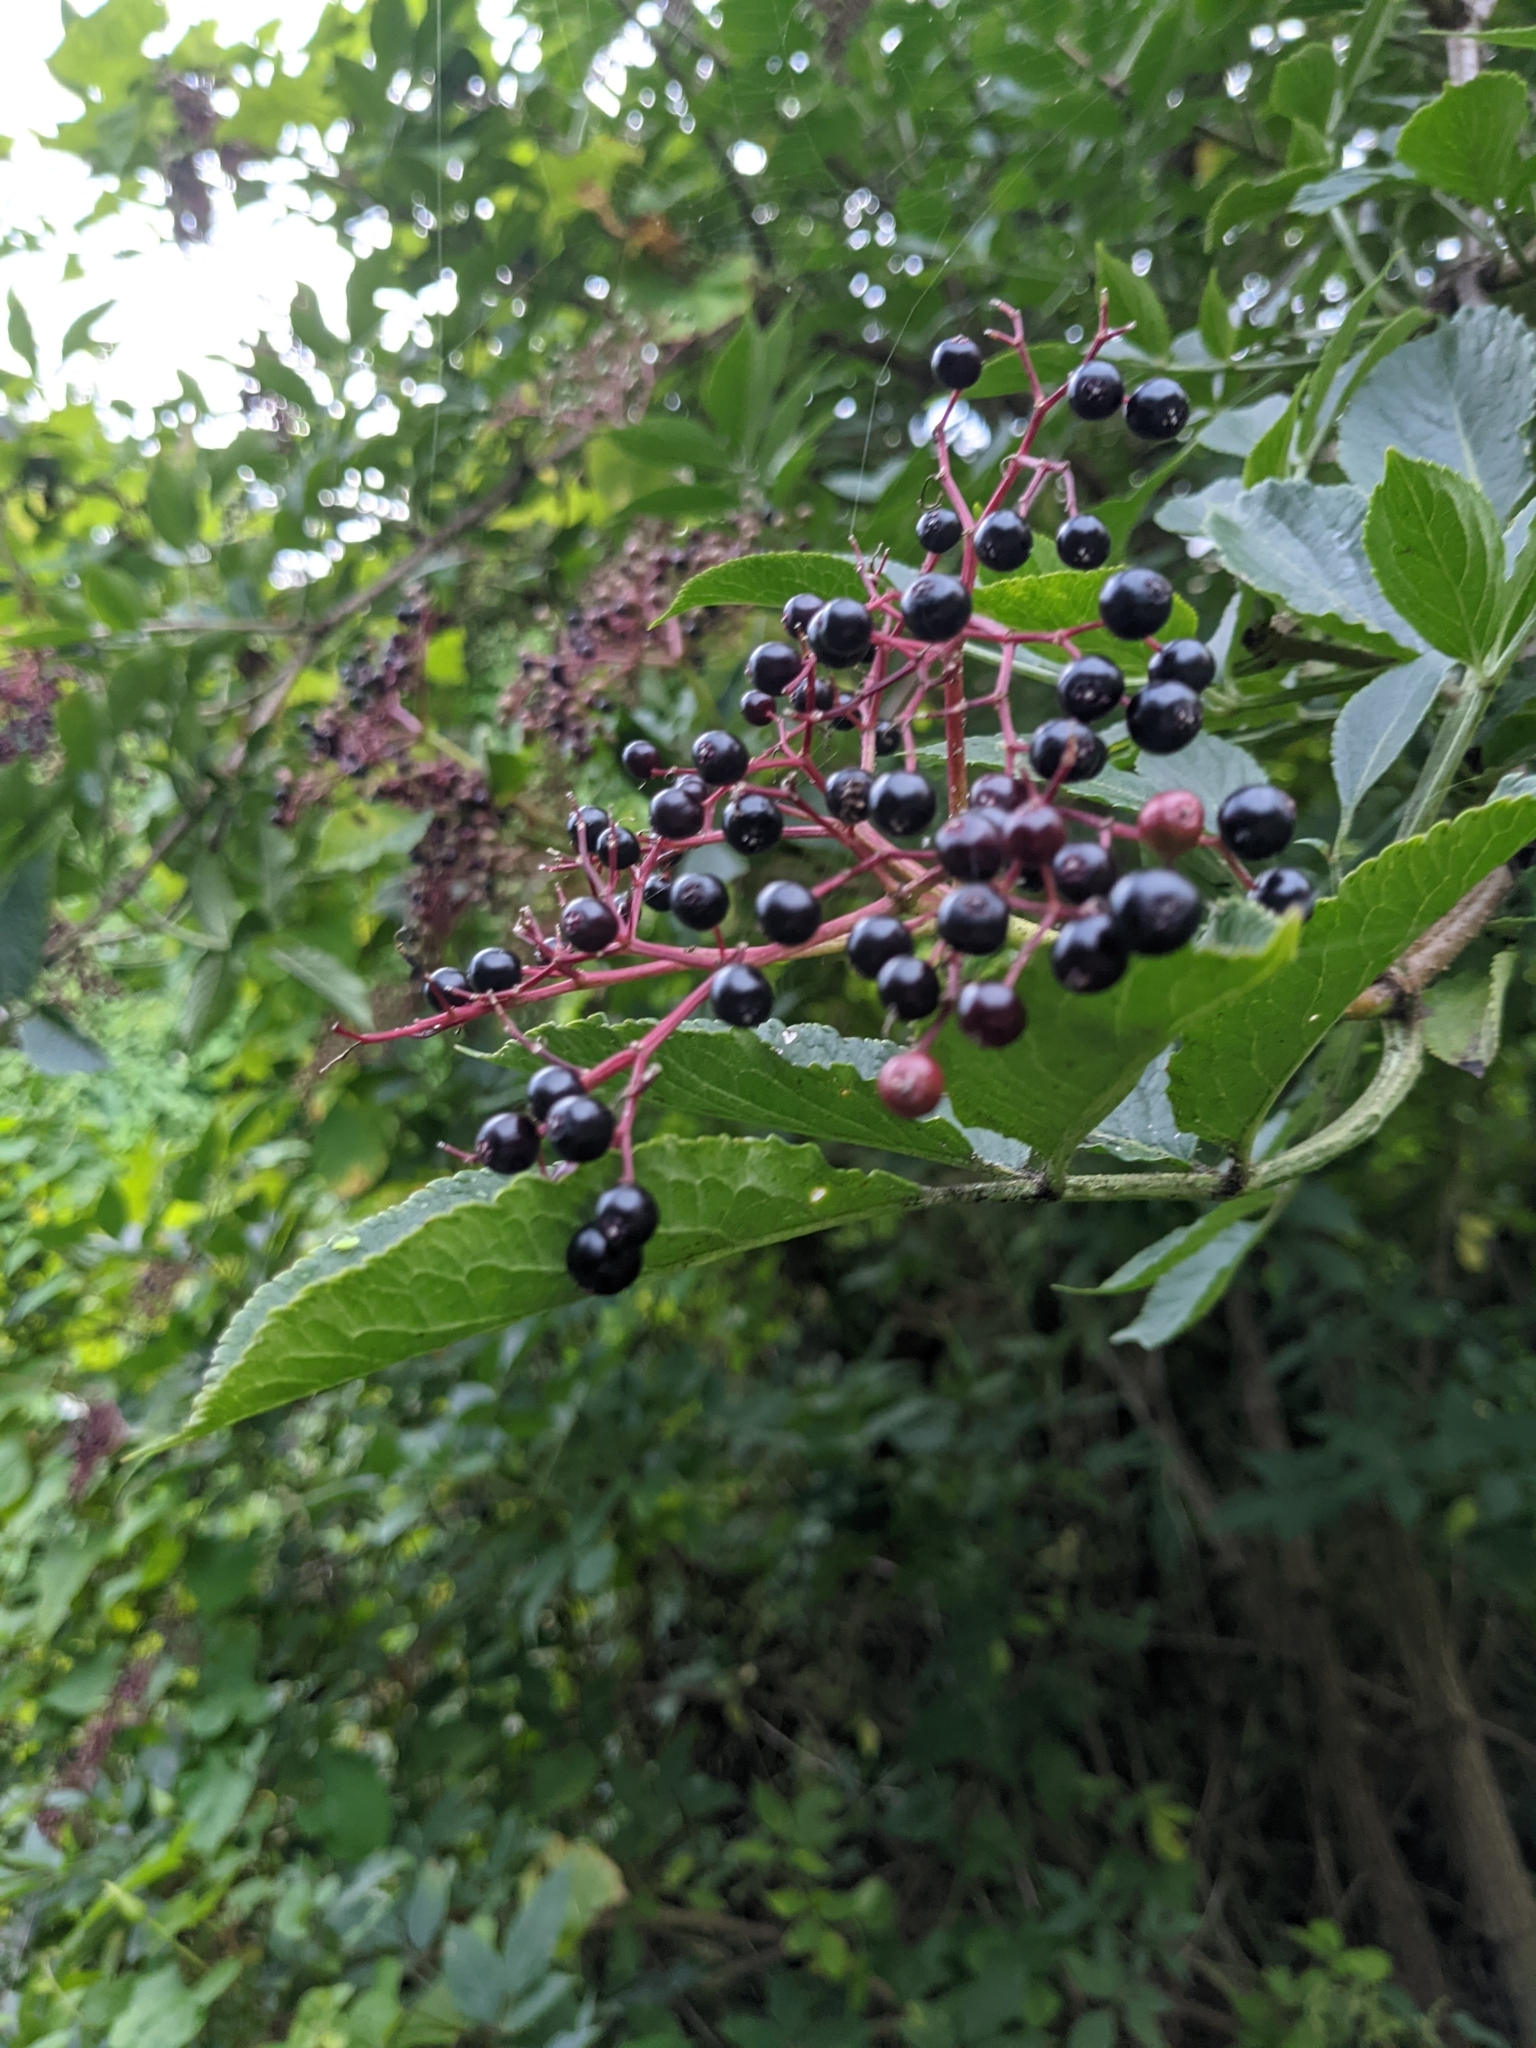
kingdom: Plantae
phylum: Tracheophyta
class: Magnoliopsida
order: Dipsacales
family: Viburnaceae
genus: Sambucus
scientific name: Sambucus nigra
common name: Elder
